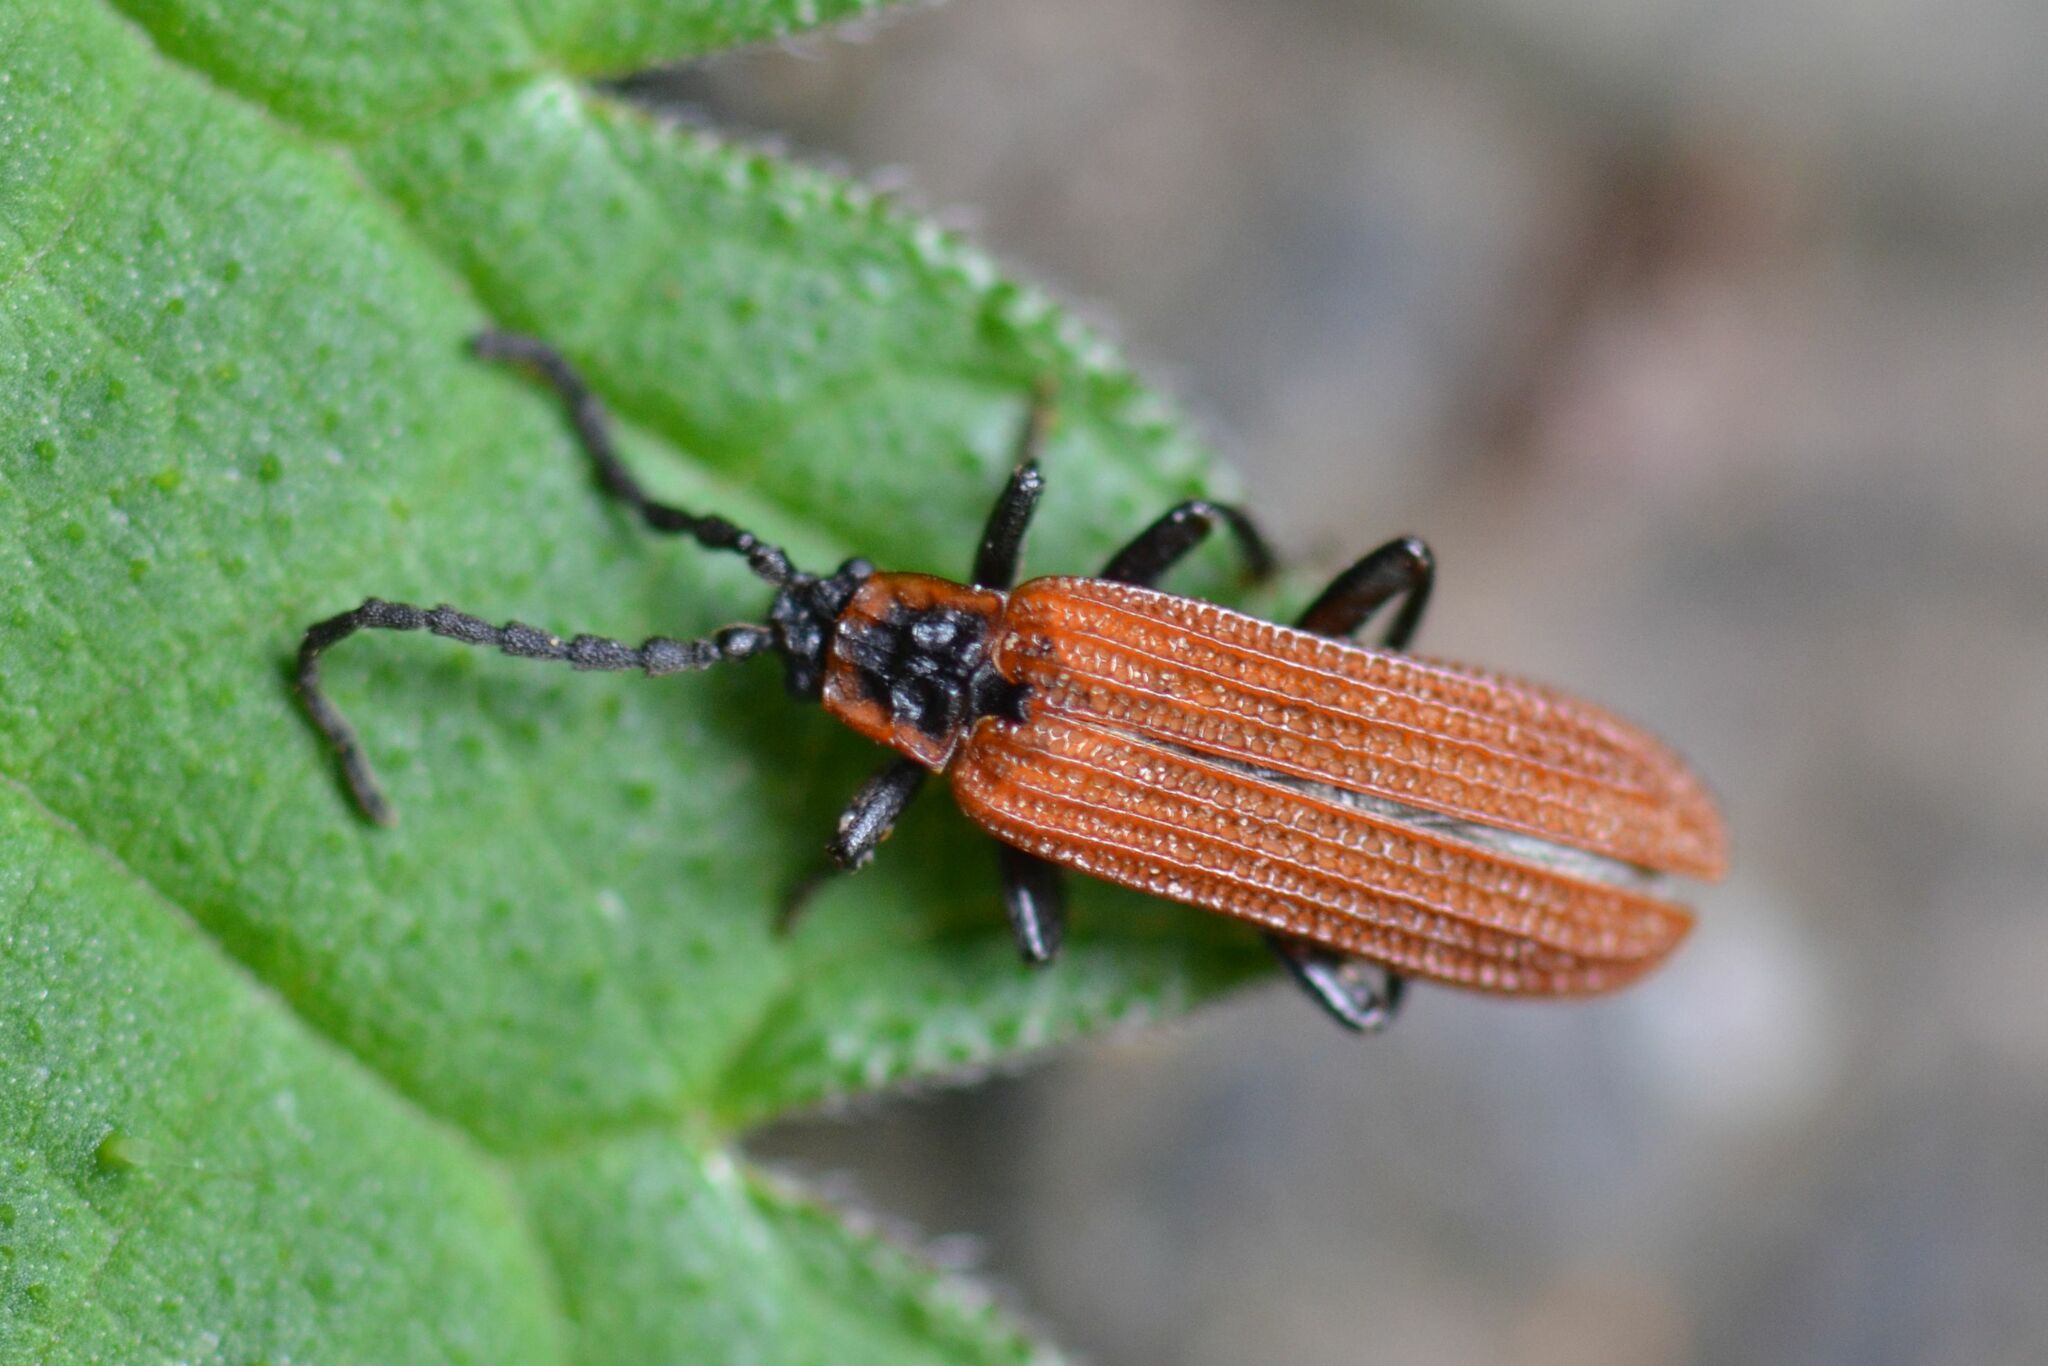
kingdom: Animalia
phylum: Arthropoda
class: Insecta
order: Coleoptera
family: Lycidae
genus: Erotides
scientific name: Erotides cosnardi
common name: Cosnard's net-winged beetle
